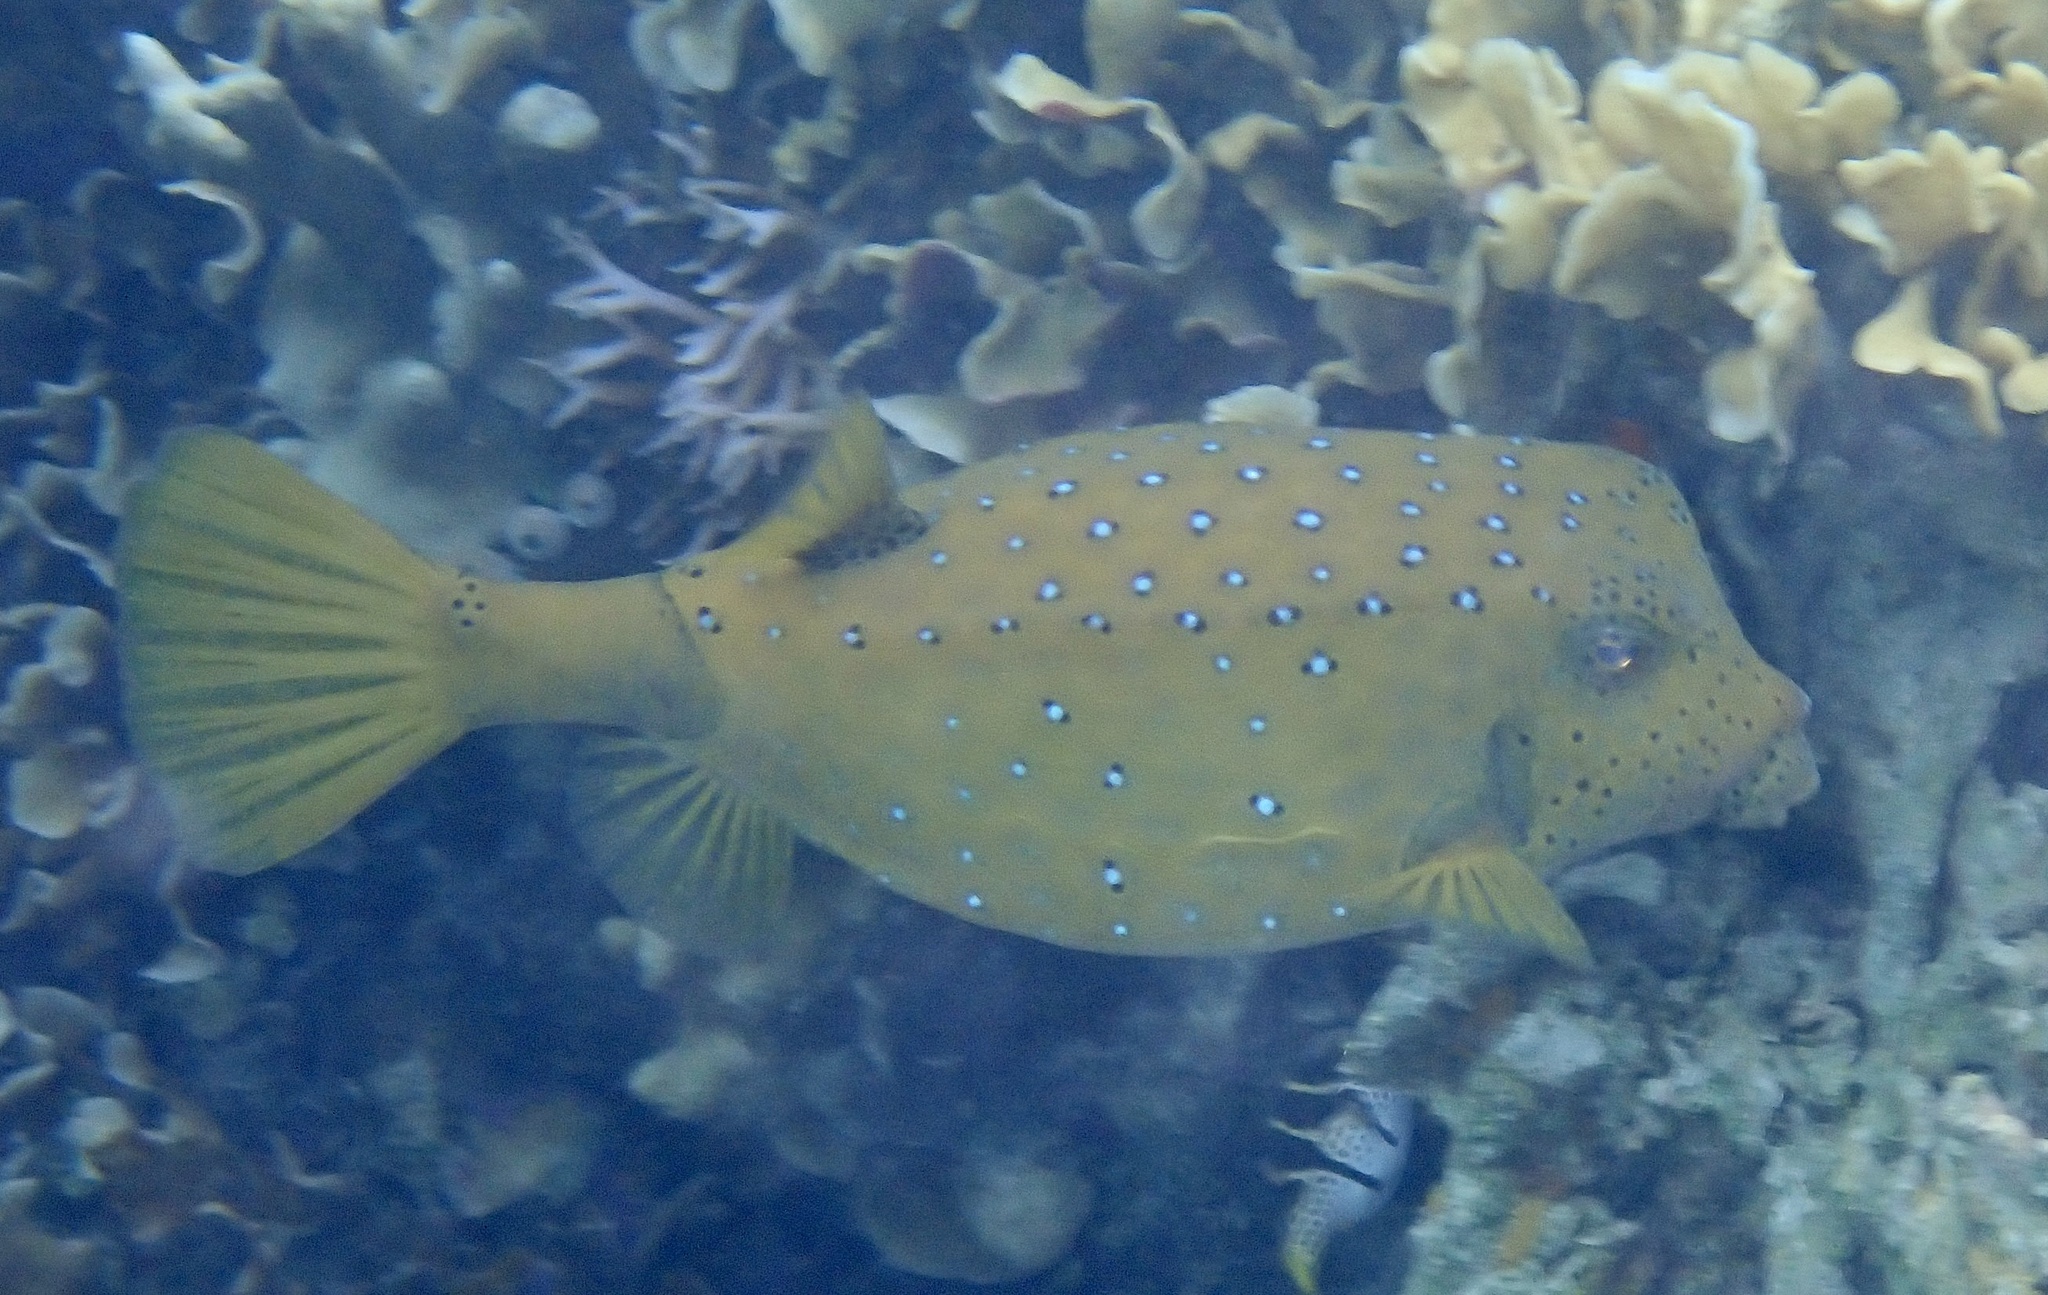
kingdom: Animalia
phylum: Chordata
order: Tetraodontiformes
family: Ostraciidae
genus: Ostracion
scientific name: Ostracion cubicus
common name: Cube trunkfish
